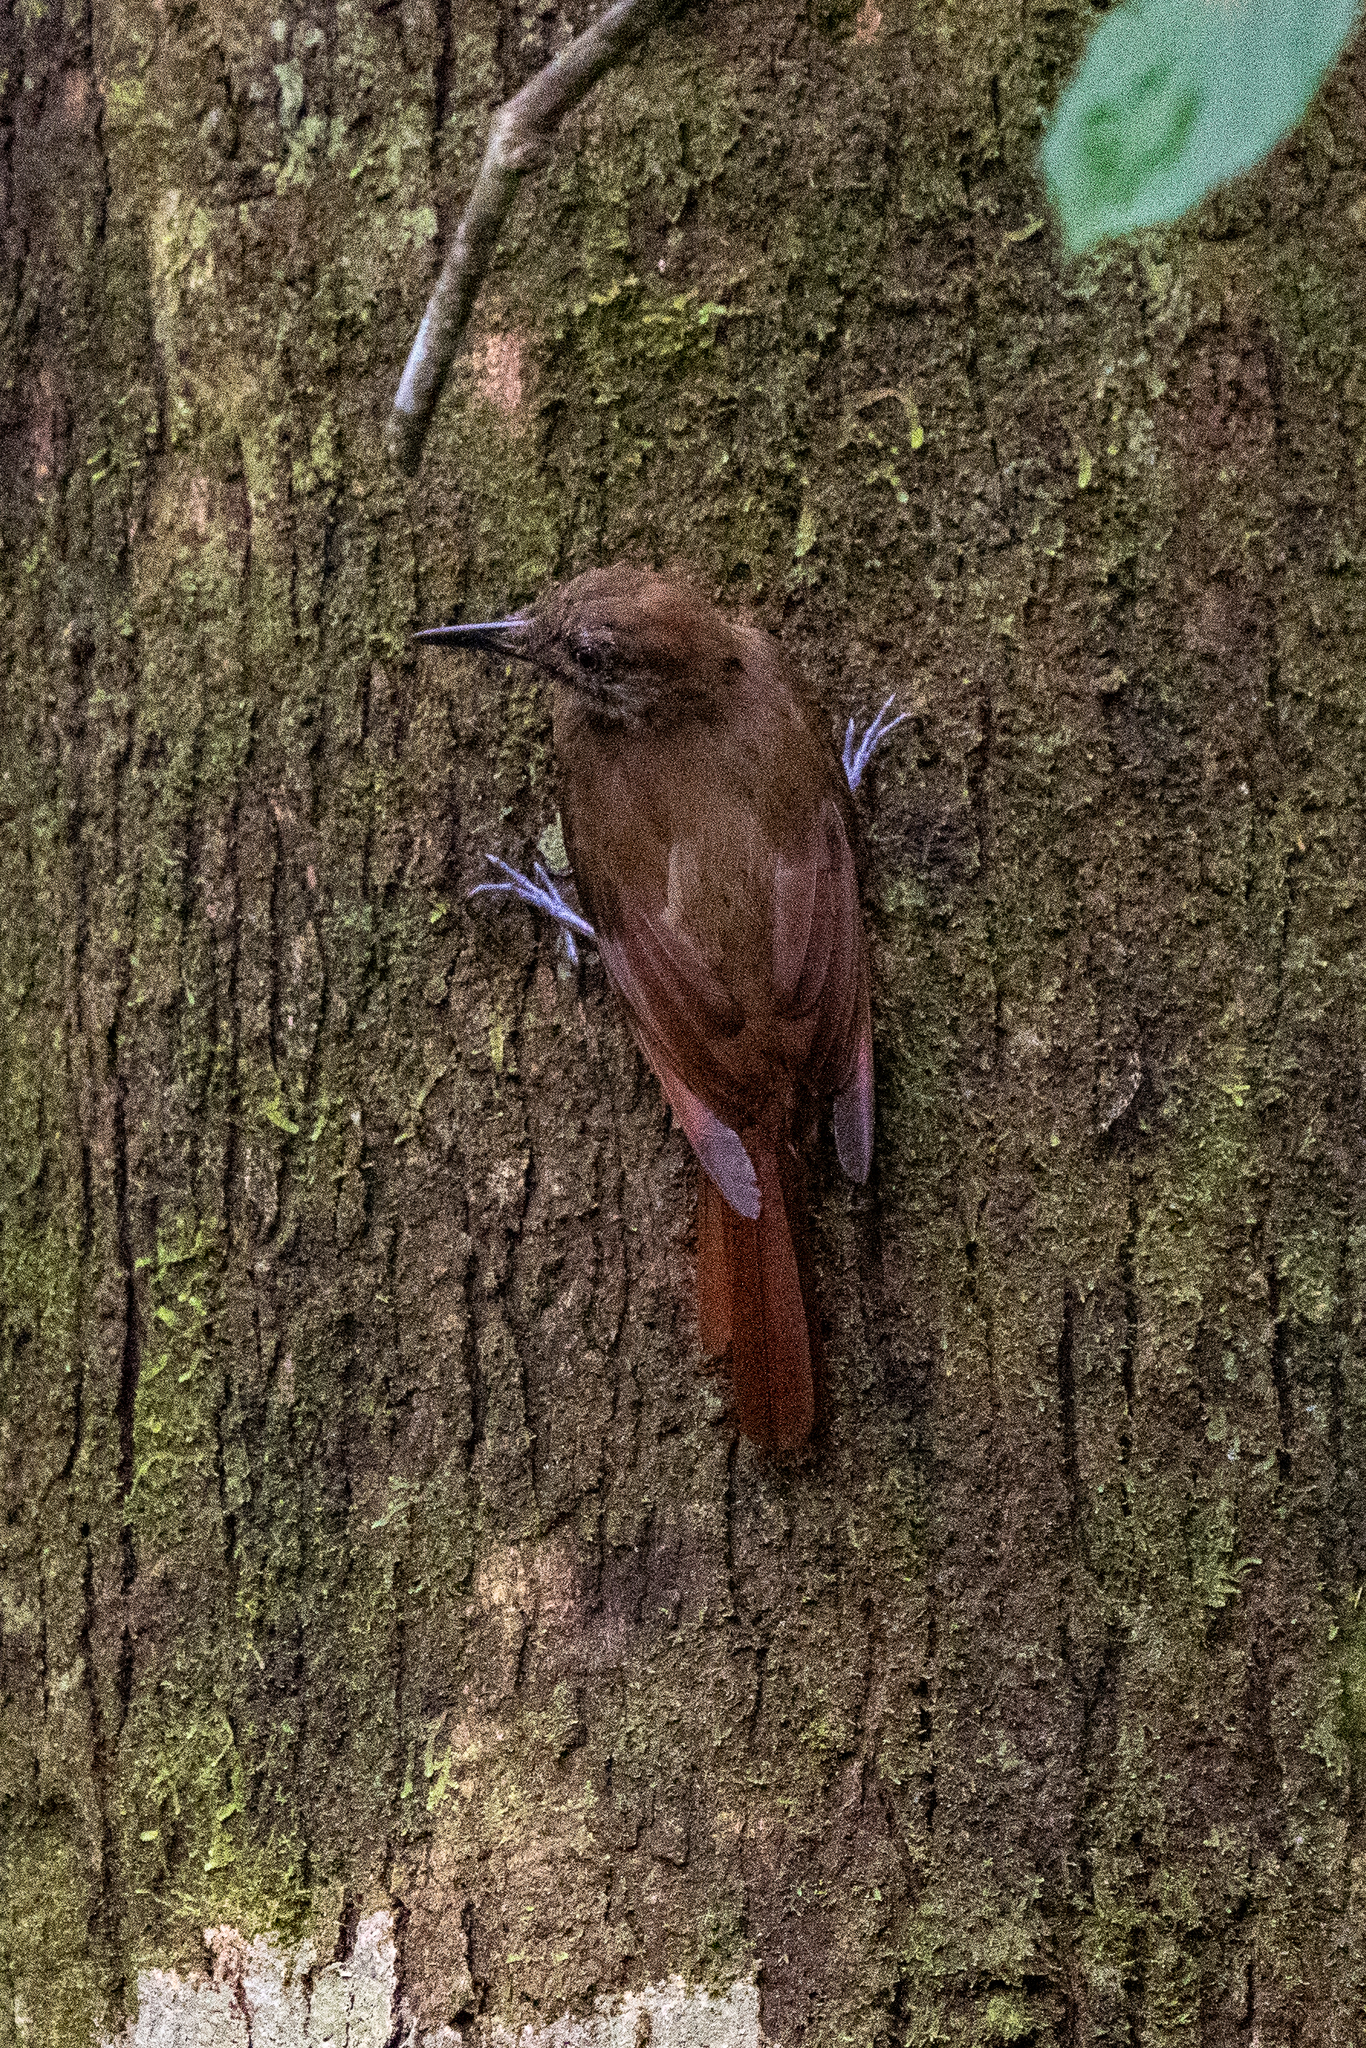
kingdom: Animalia
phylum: Chordata
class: Aves
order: Passeriformes
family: Furnariidae
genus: Dendrocincla
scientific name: Dendrocincla fuliginosa
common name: Plain-brown woodcreeper
